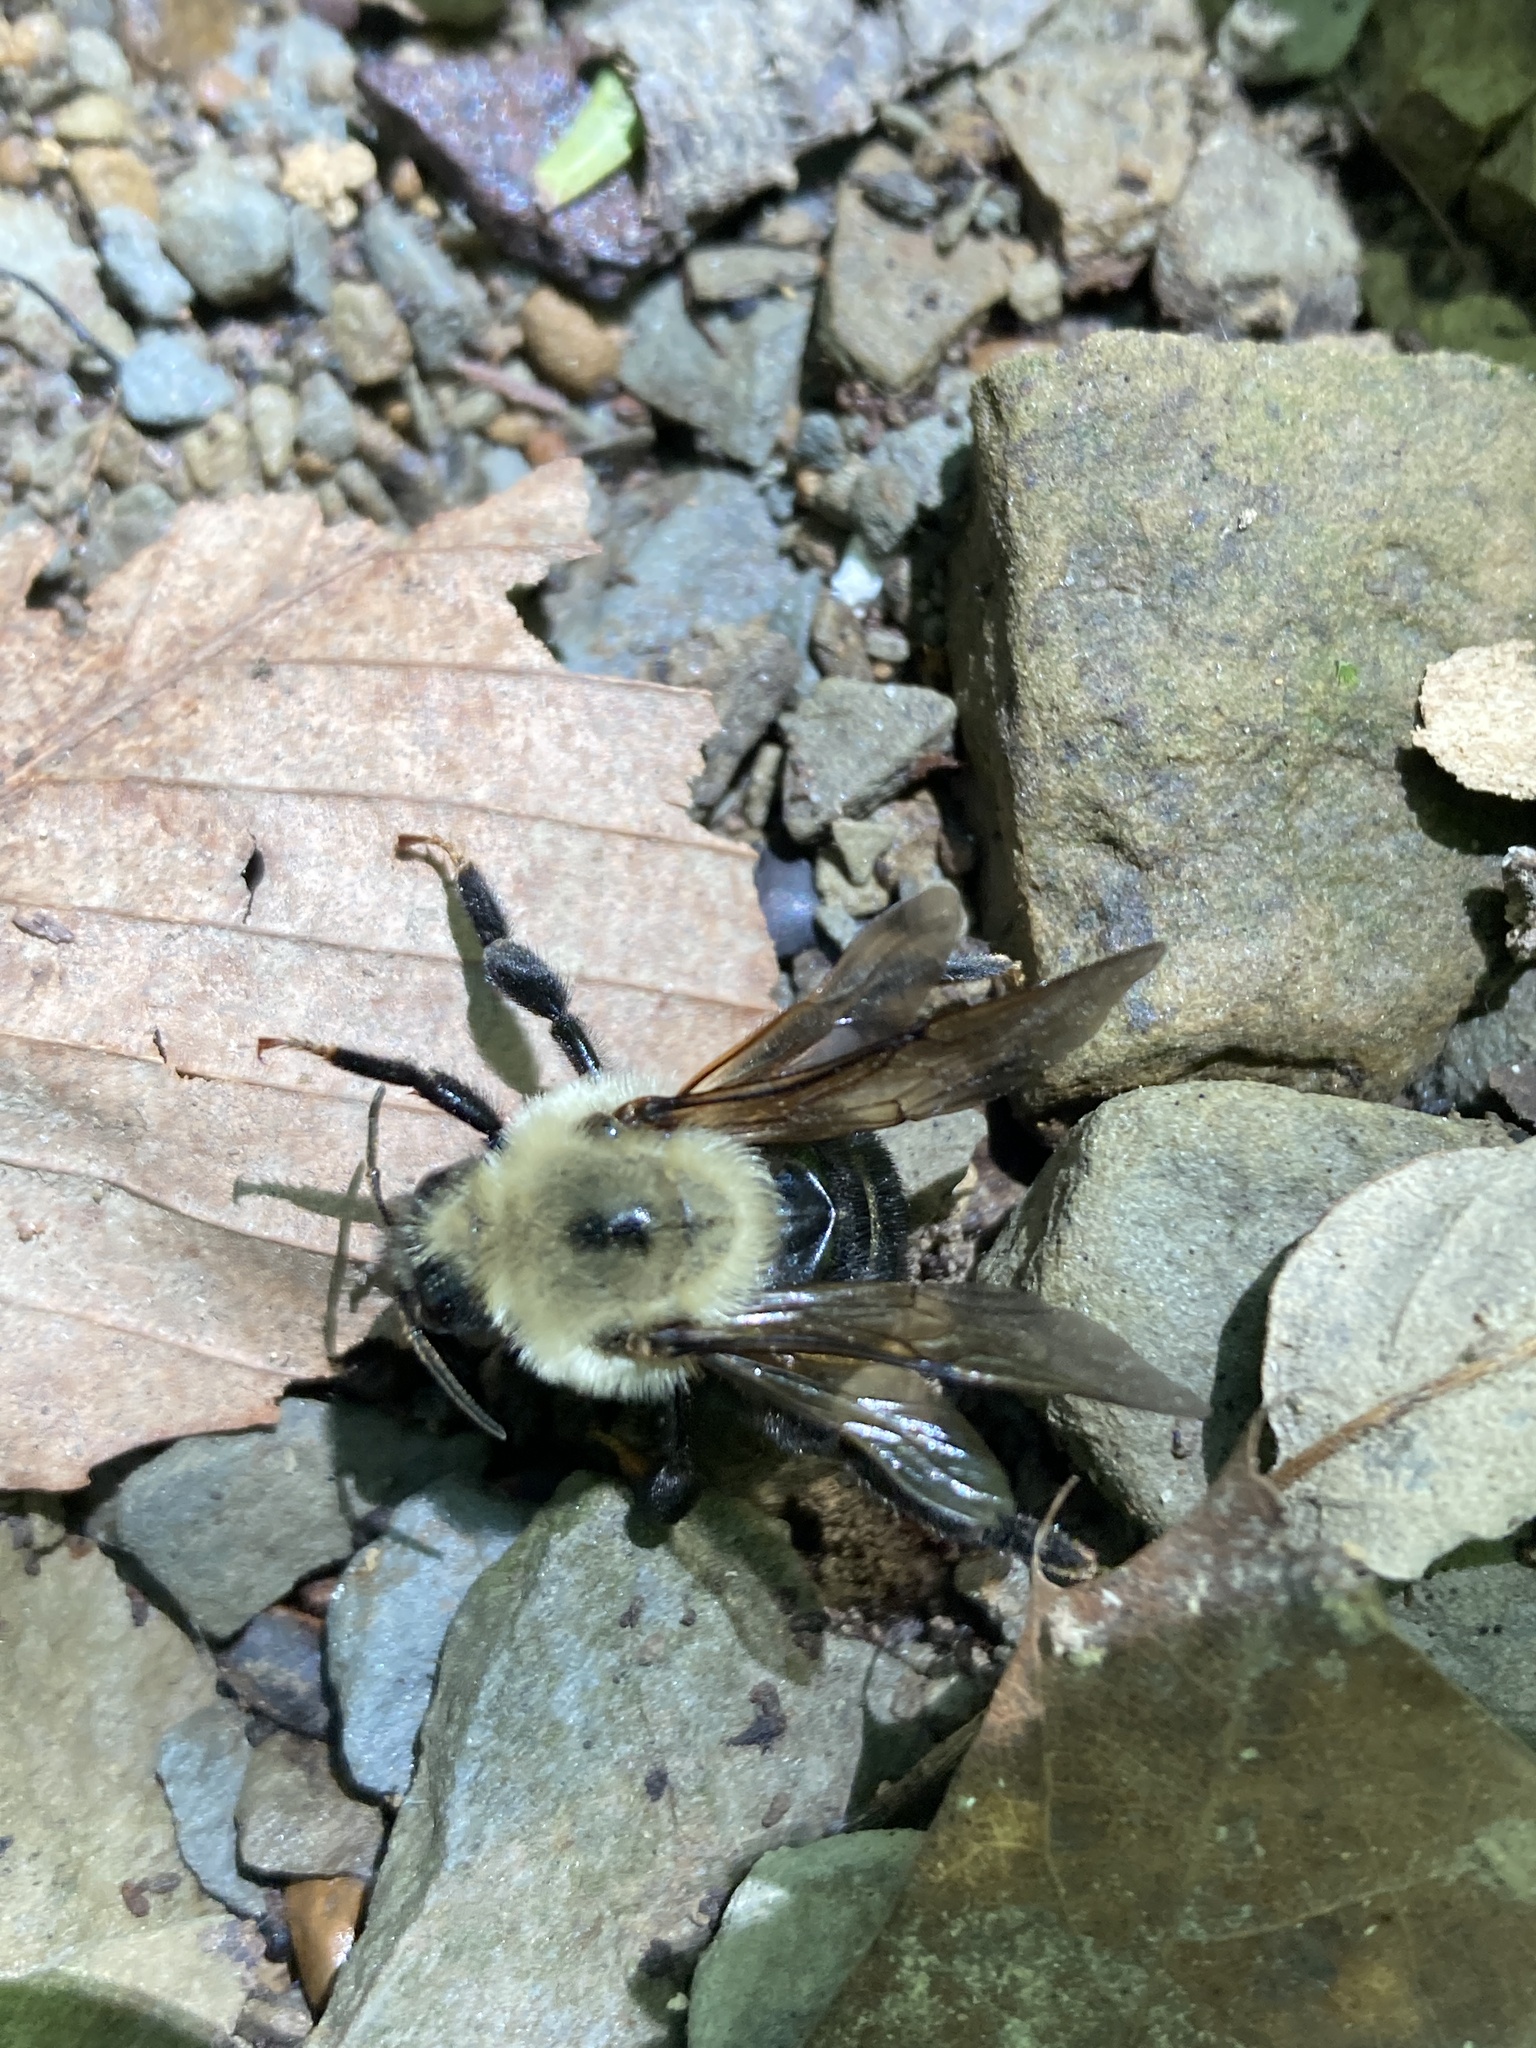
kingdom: Animalia
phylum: Arthropoda
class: Insecta
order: Hymenoptera
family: Apidae
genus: Bombus
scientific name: Bombus citrinus
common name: Lemon cuckoo bumble bee
